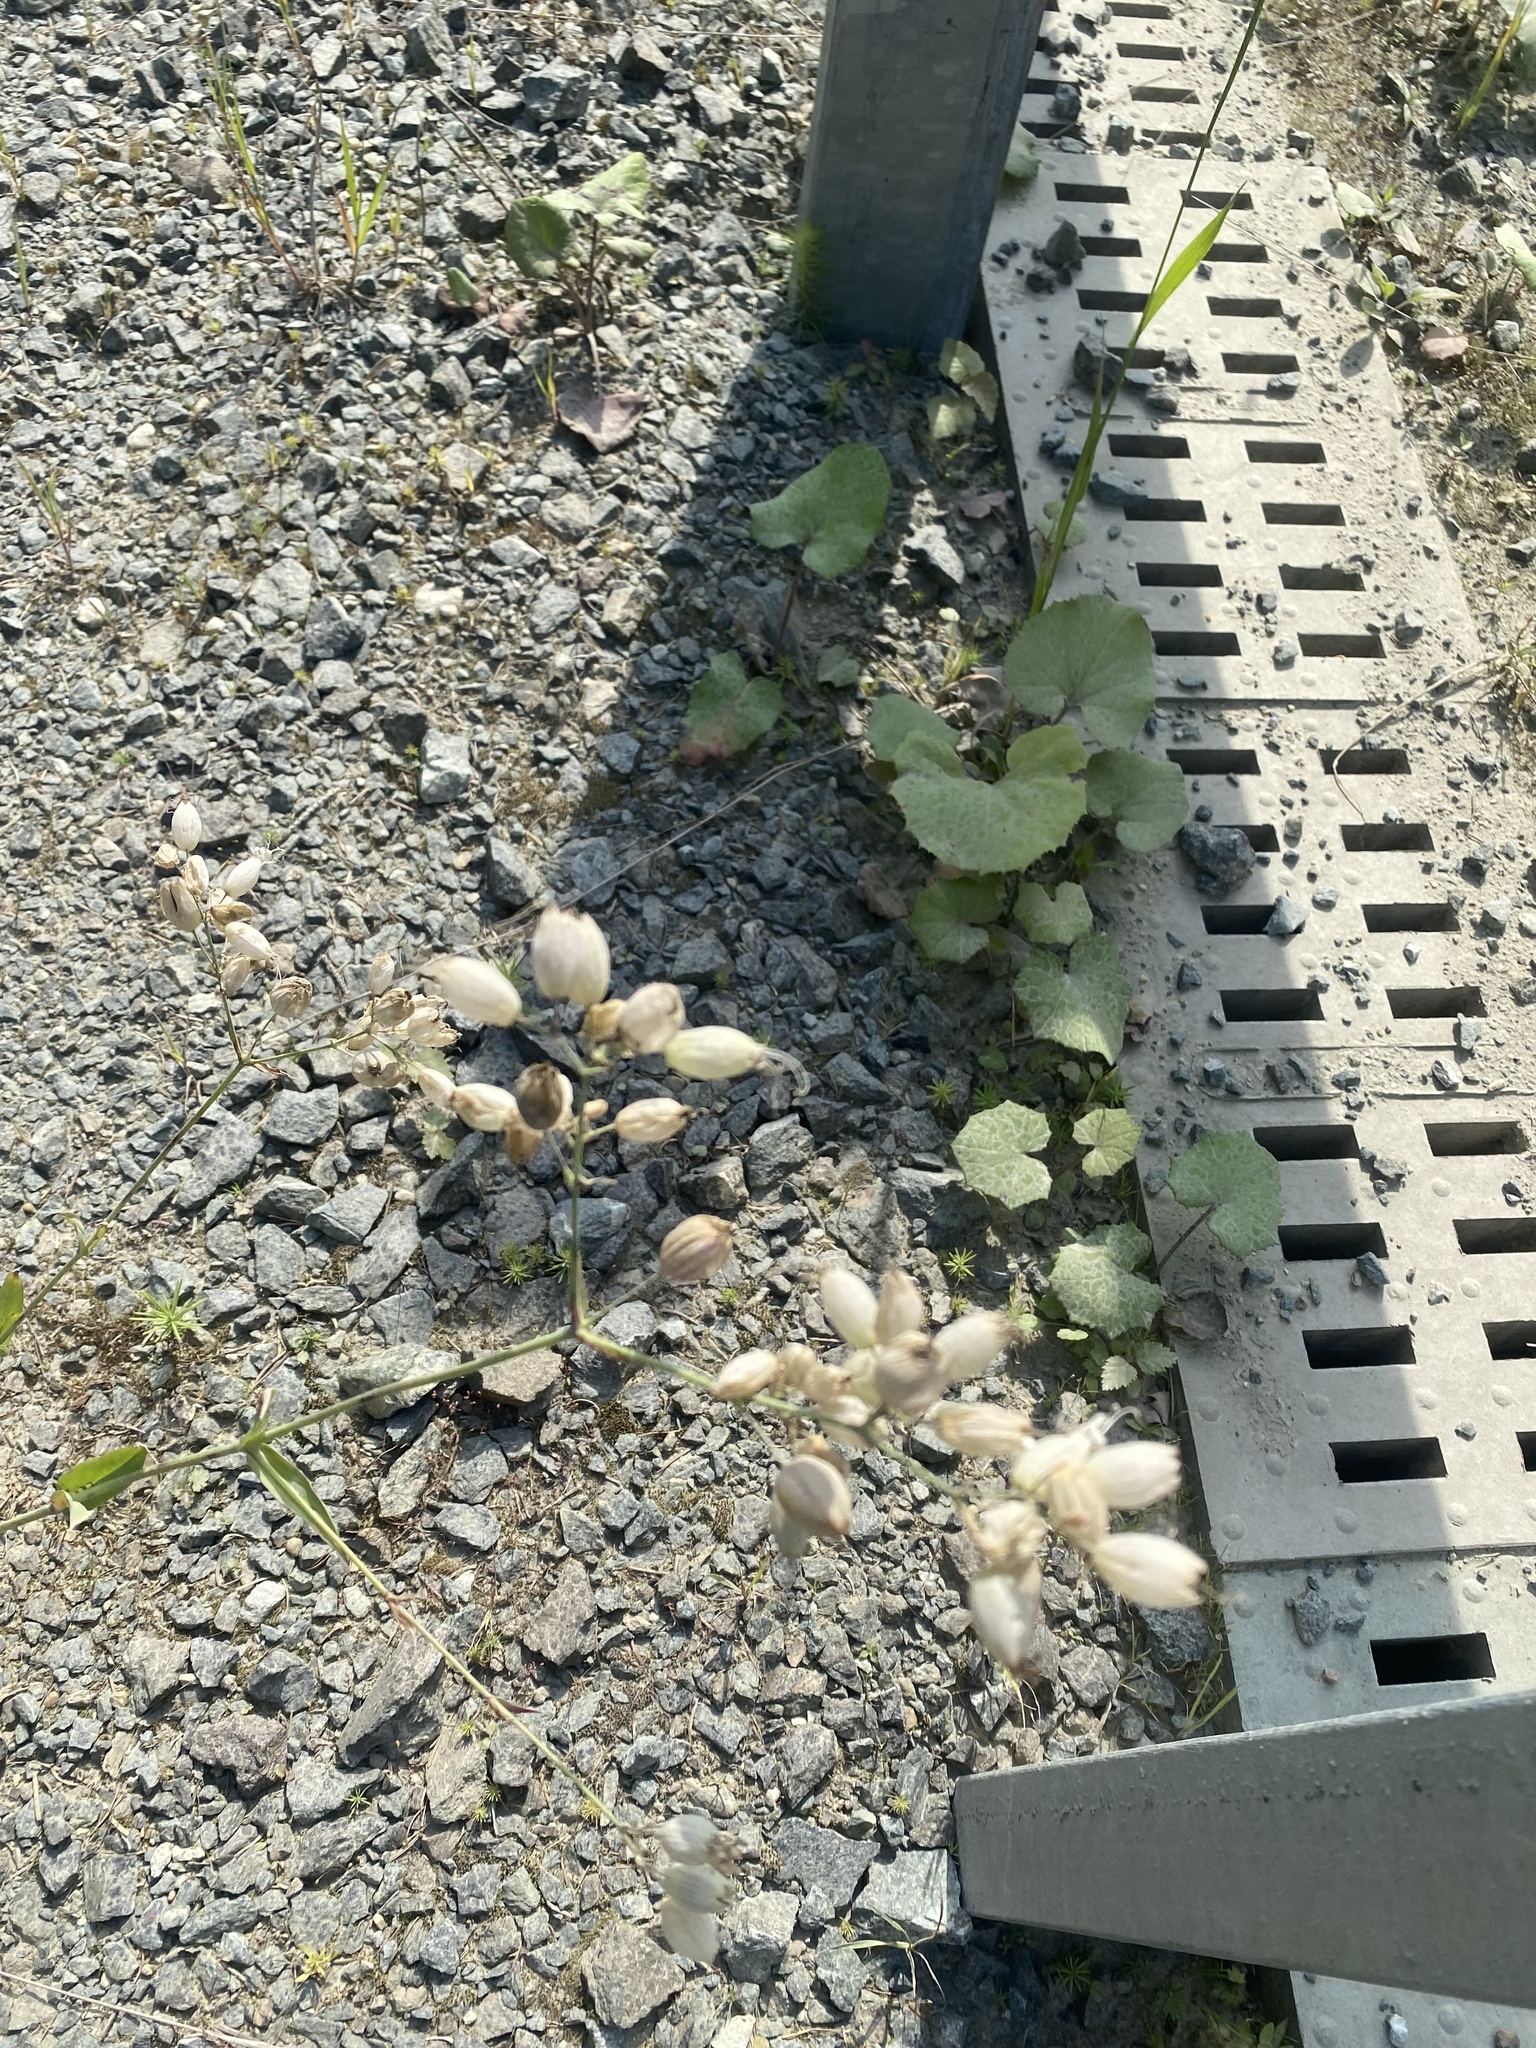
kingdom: Plantae
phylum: Tracheophyta
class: Magnoliopsida
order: Caryophyllales
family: Caryophyllaceae
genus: Silene
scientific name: Silene vulgaris
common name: Bladder campion
